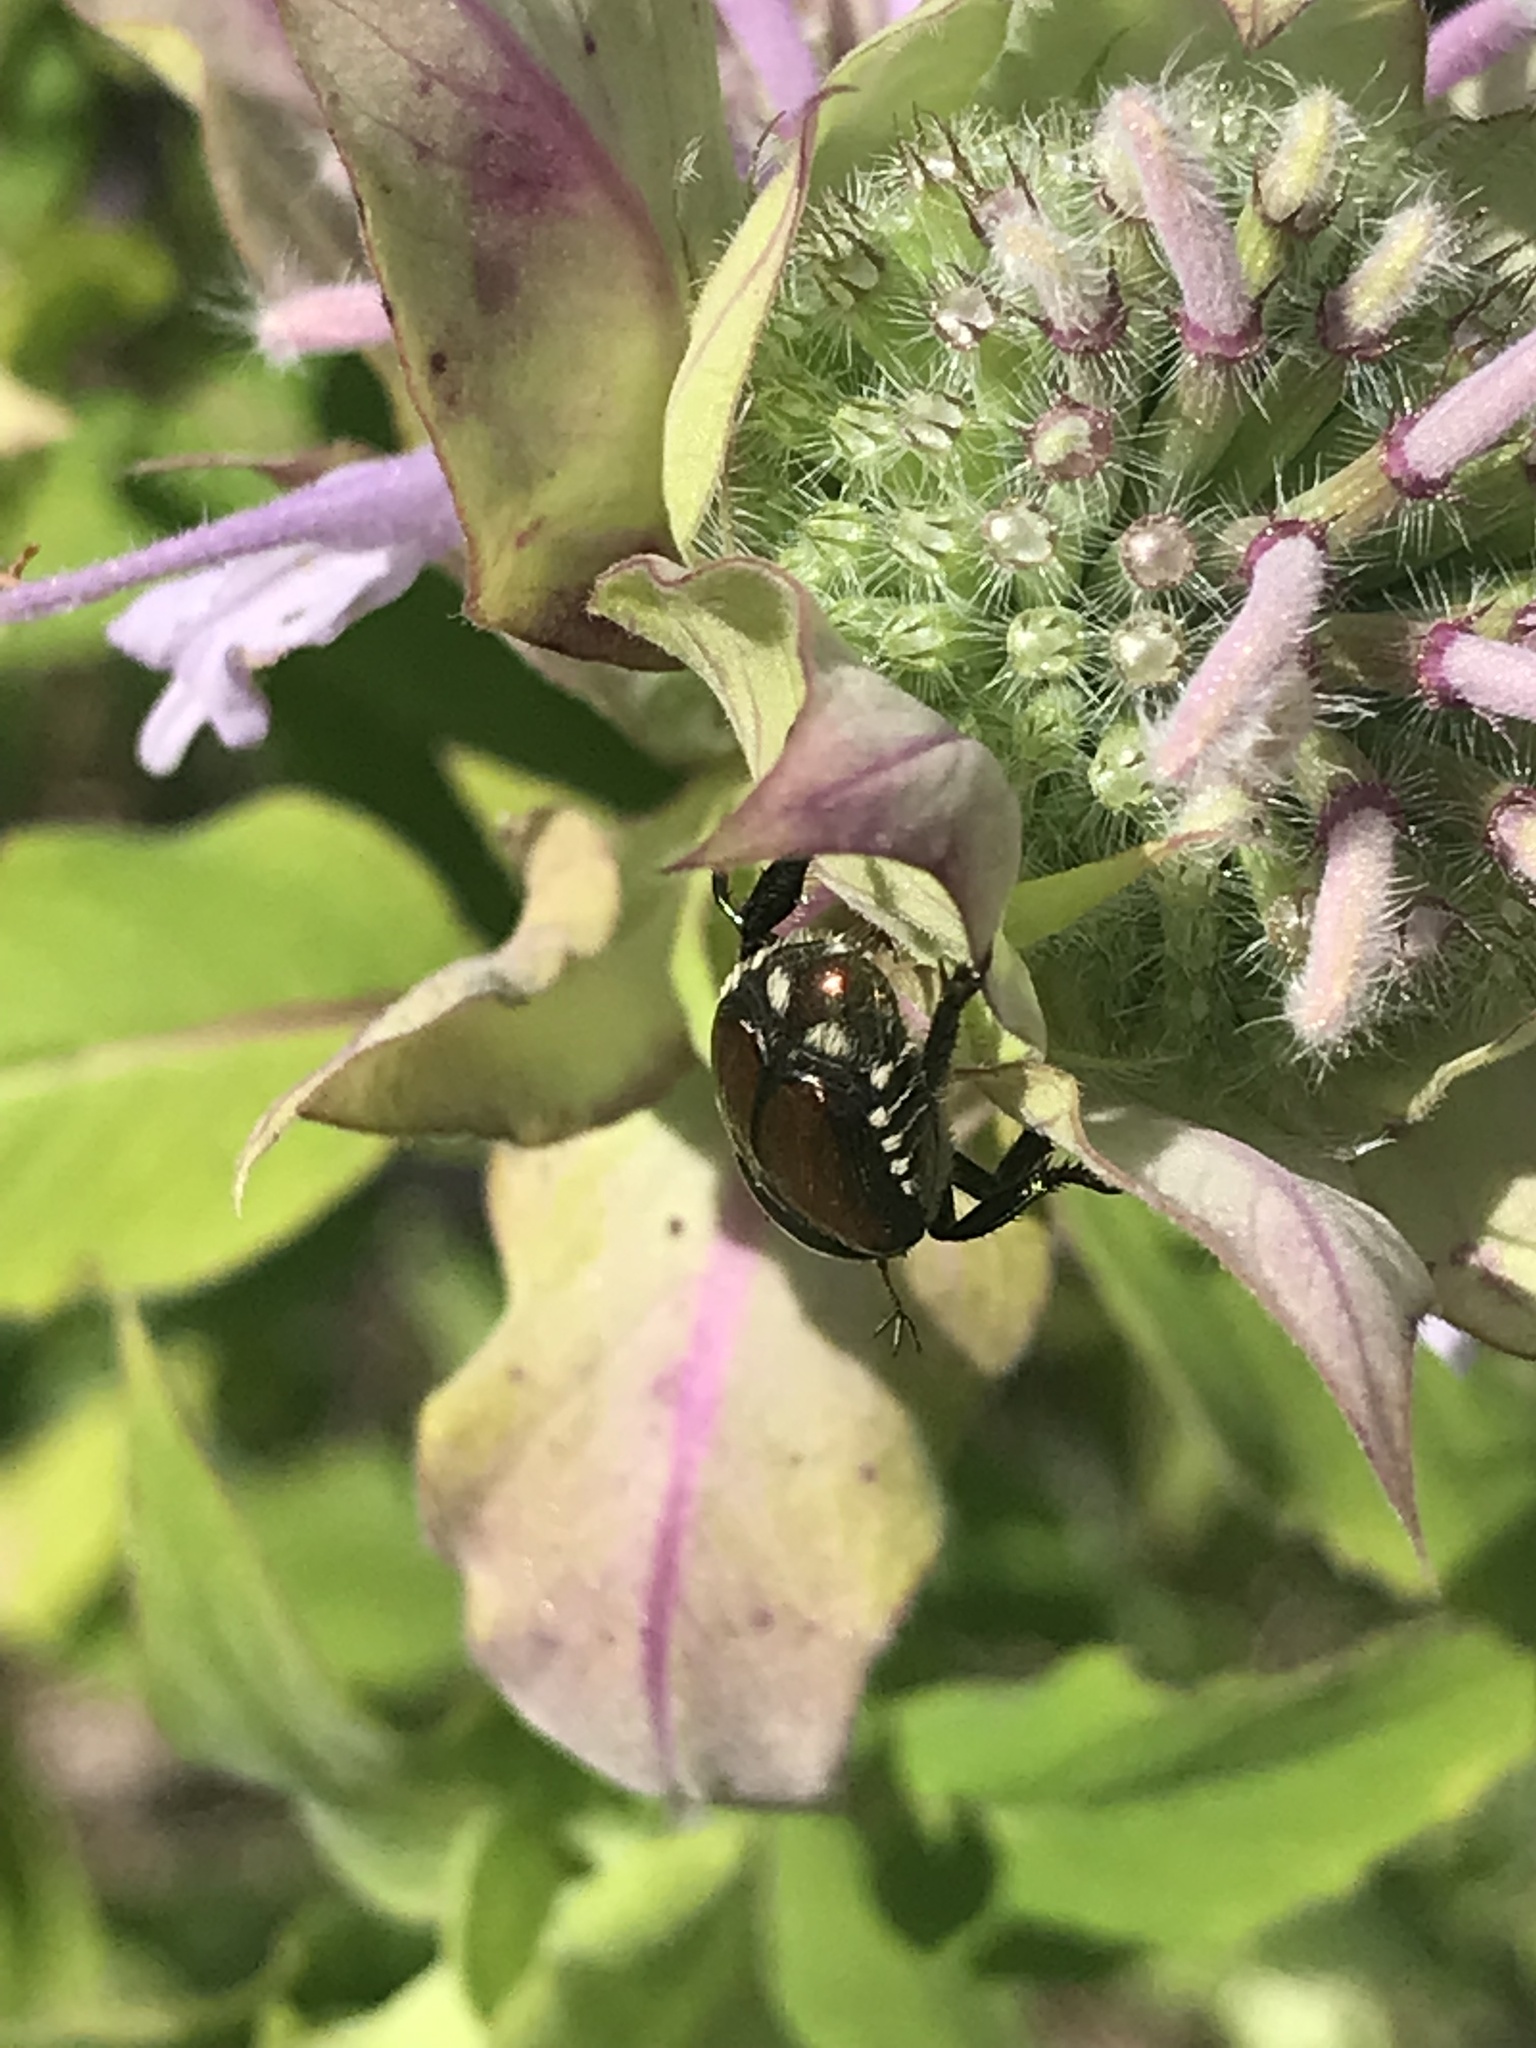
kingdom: Animalia
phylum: Arthropoda
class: Insecta
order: Coleoptera
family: Scarabaeidae
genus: Popillia
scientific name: Popillia japonica
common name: Japanese beetle
